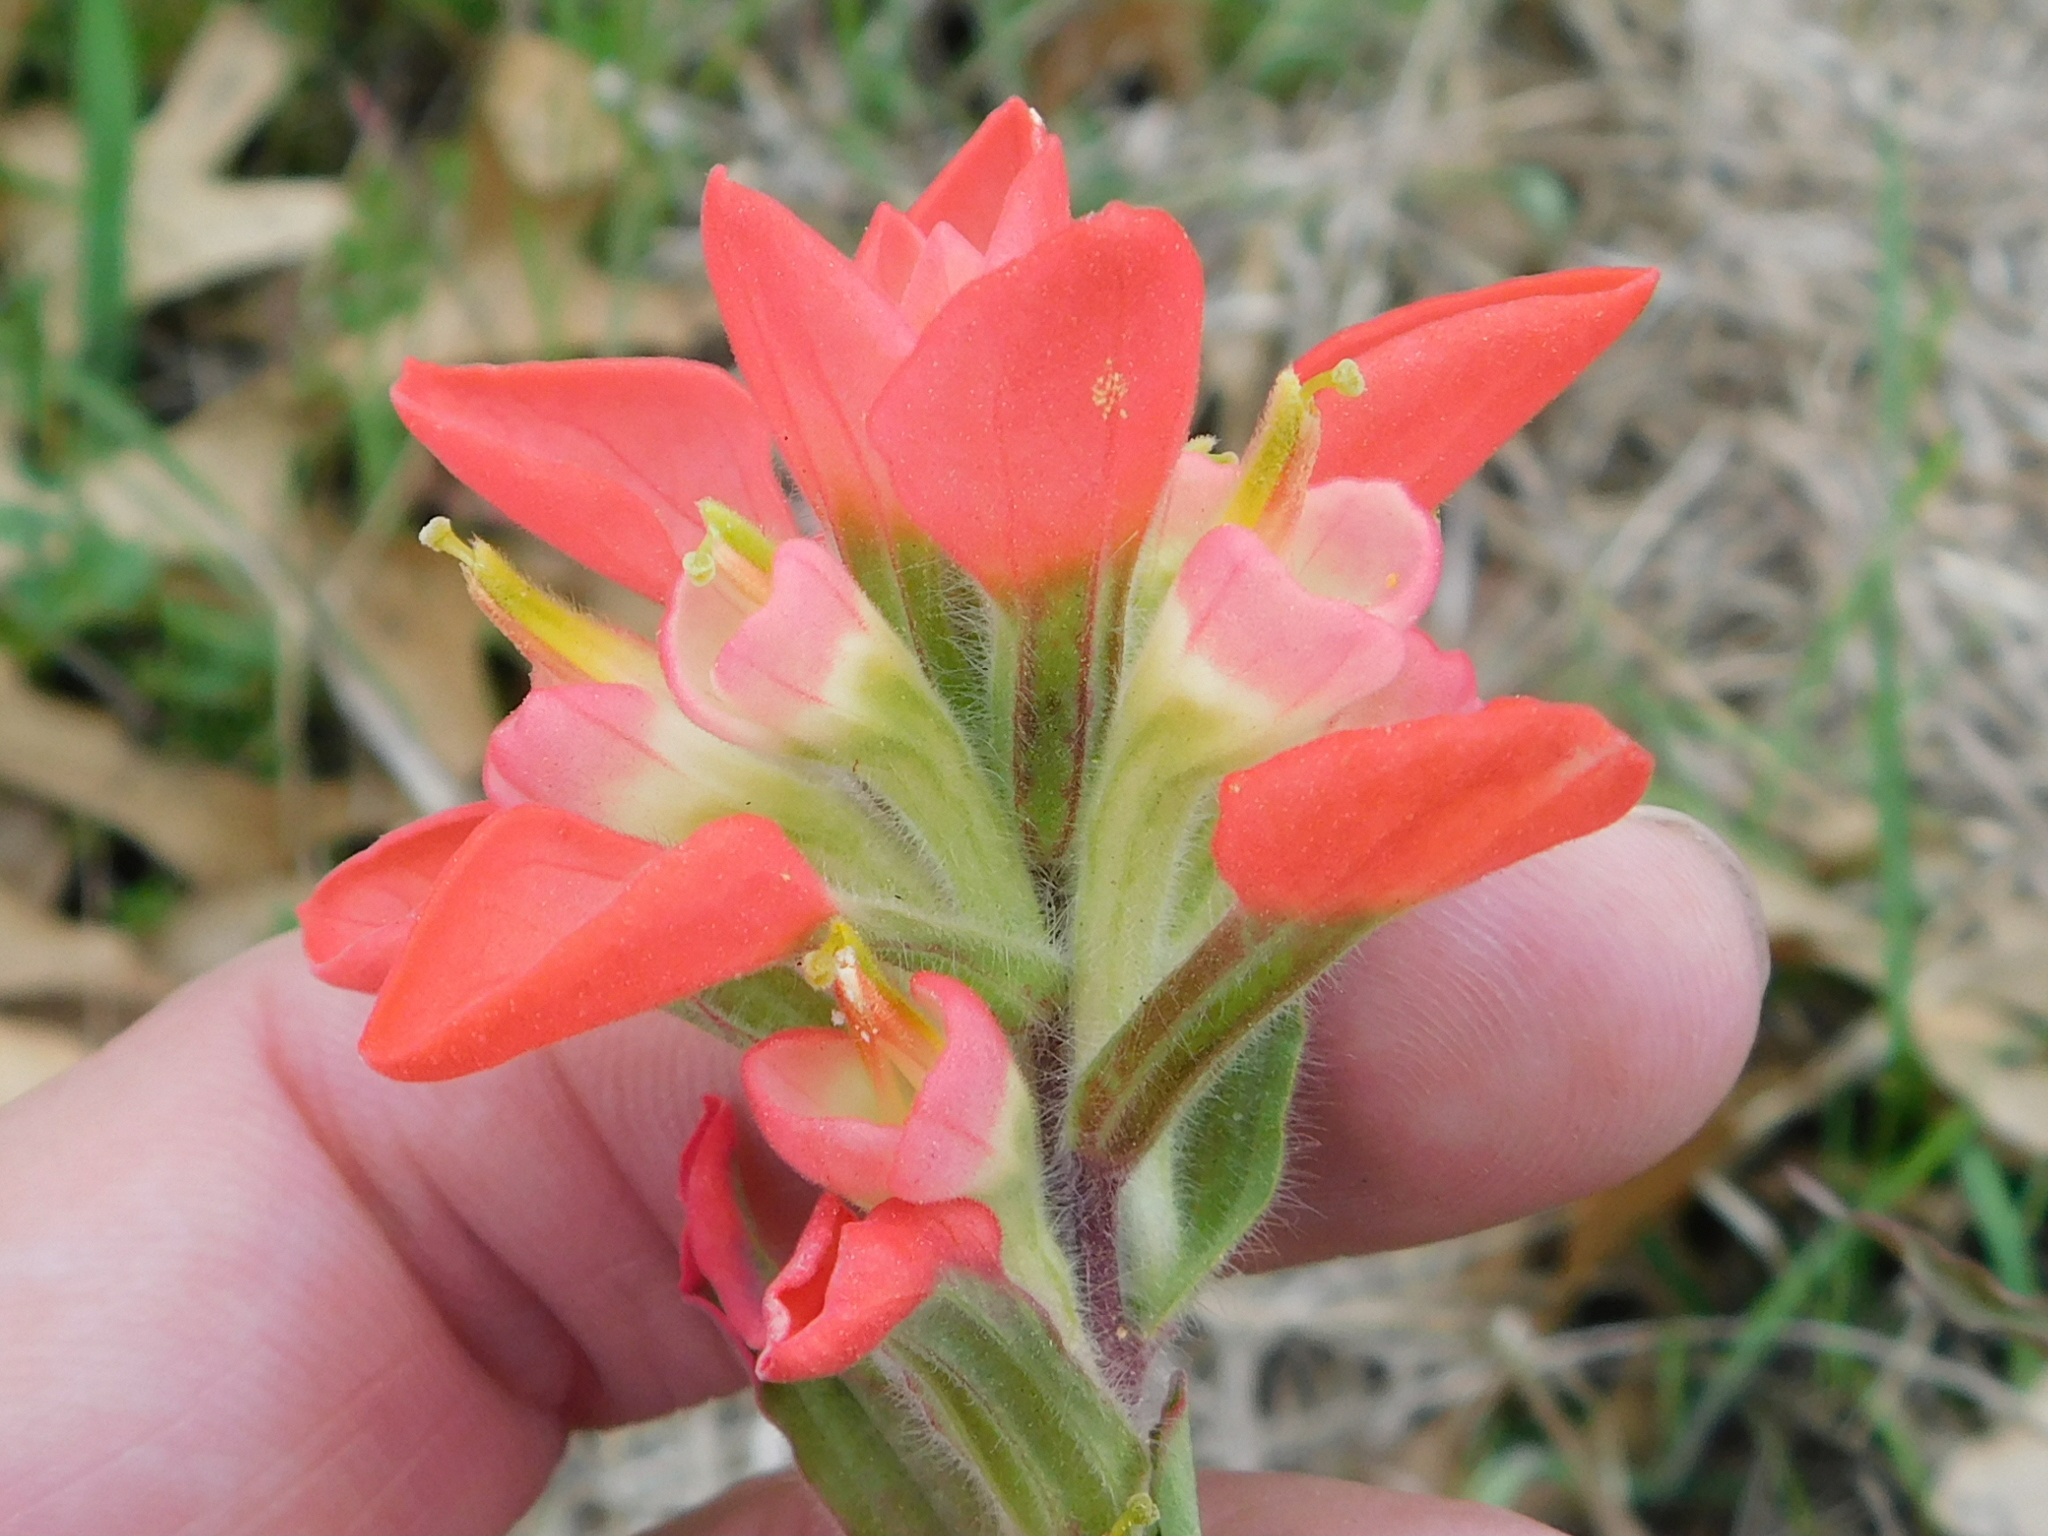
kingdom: Plantae
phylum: Tracheophyta
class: Magnoliopsida
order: Lamiales
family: Orobanchaceae
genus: Castilleja
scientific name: Castilleja indivisa
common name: Texas paintbrush
